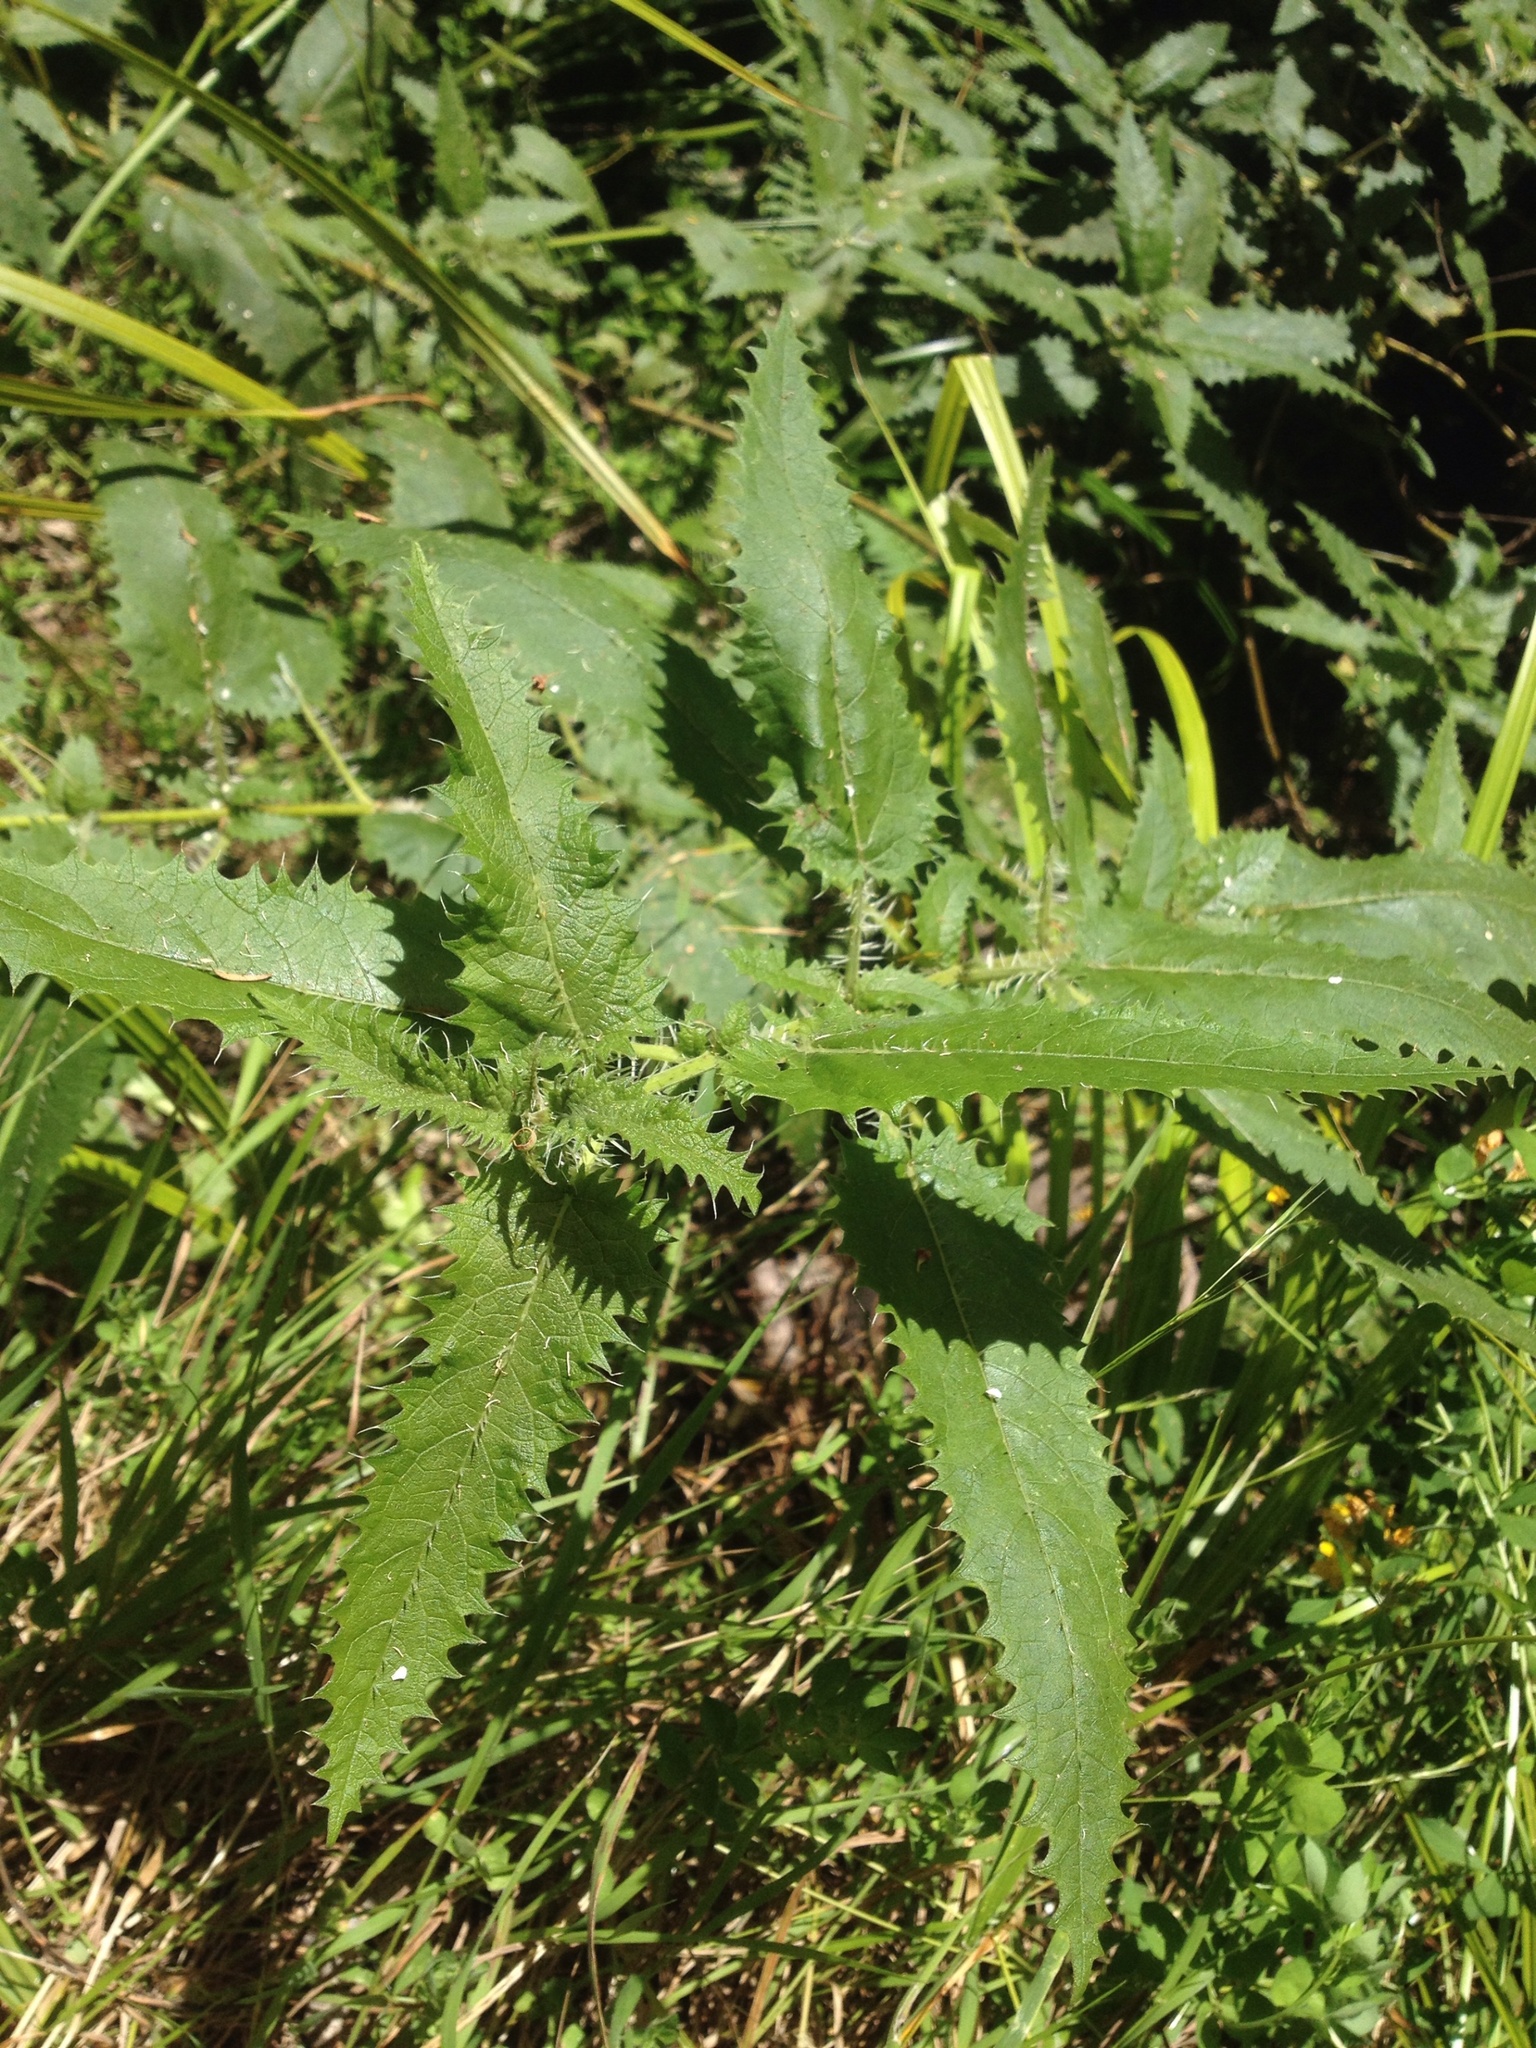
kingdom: Plantae
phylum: Tracheophyta
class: Magnoliopsida
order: Rosales
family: Urticaceae
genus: Urtica
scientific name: Urtica ferox
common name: Tree nettle
